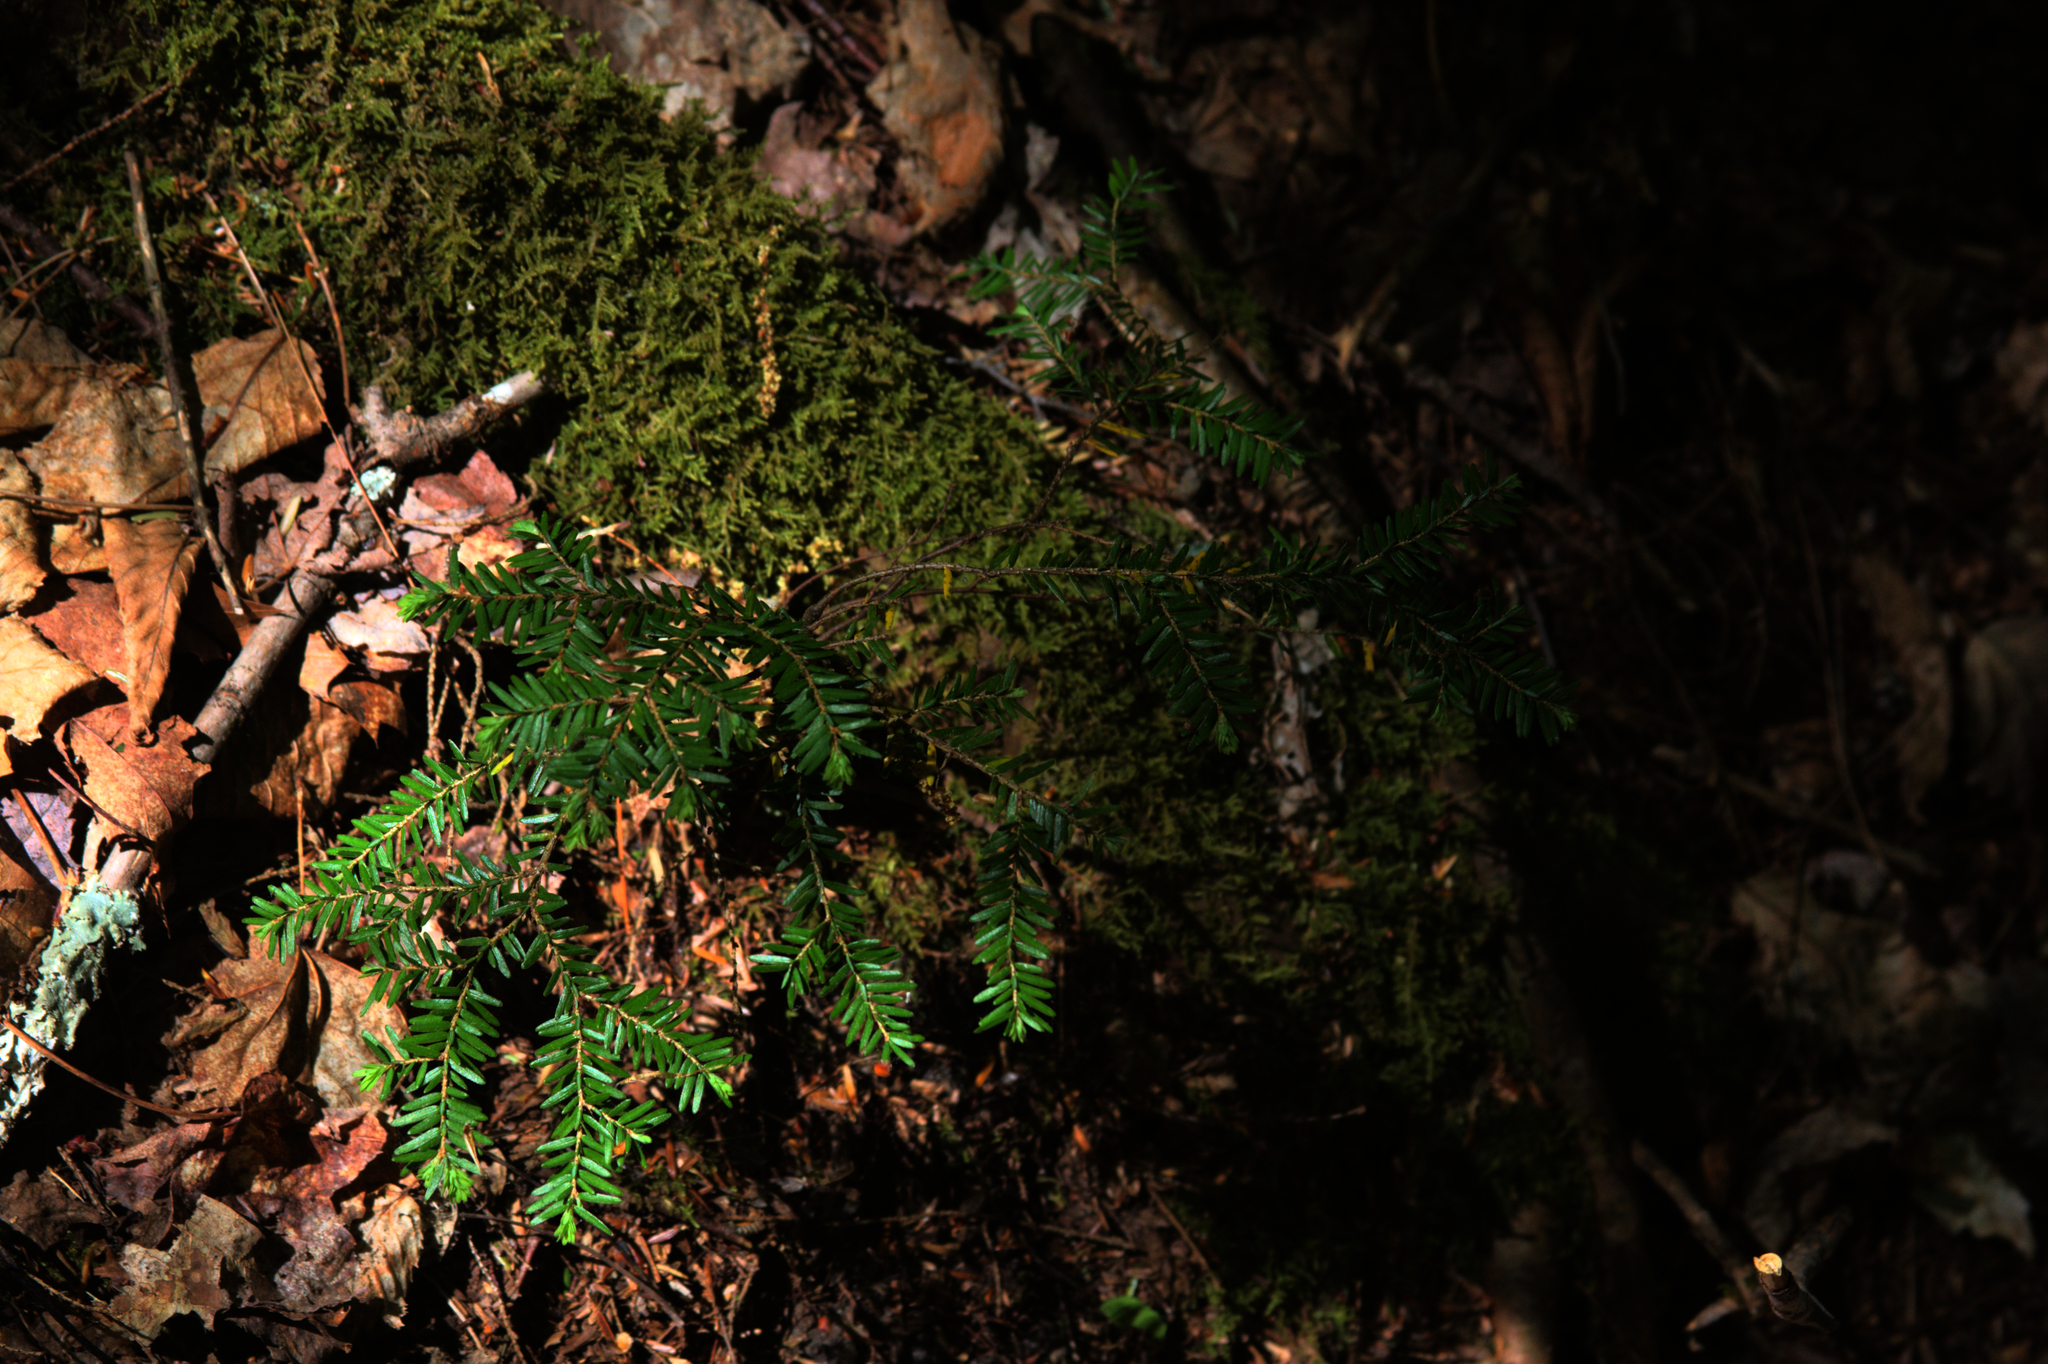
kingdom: Plantae
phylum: Tracheophyta
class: Pinopsida
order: Pinales
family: Pinaceae
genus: Tsuga
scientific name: Tsuga canadensis
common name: Eastern hemlock
